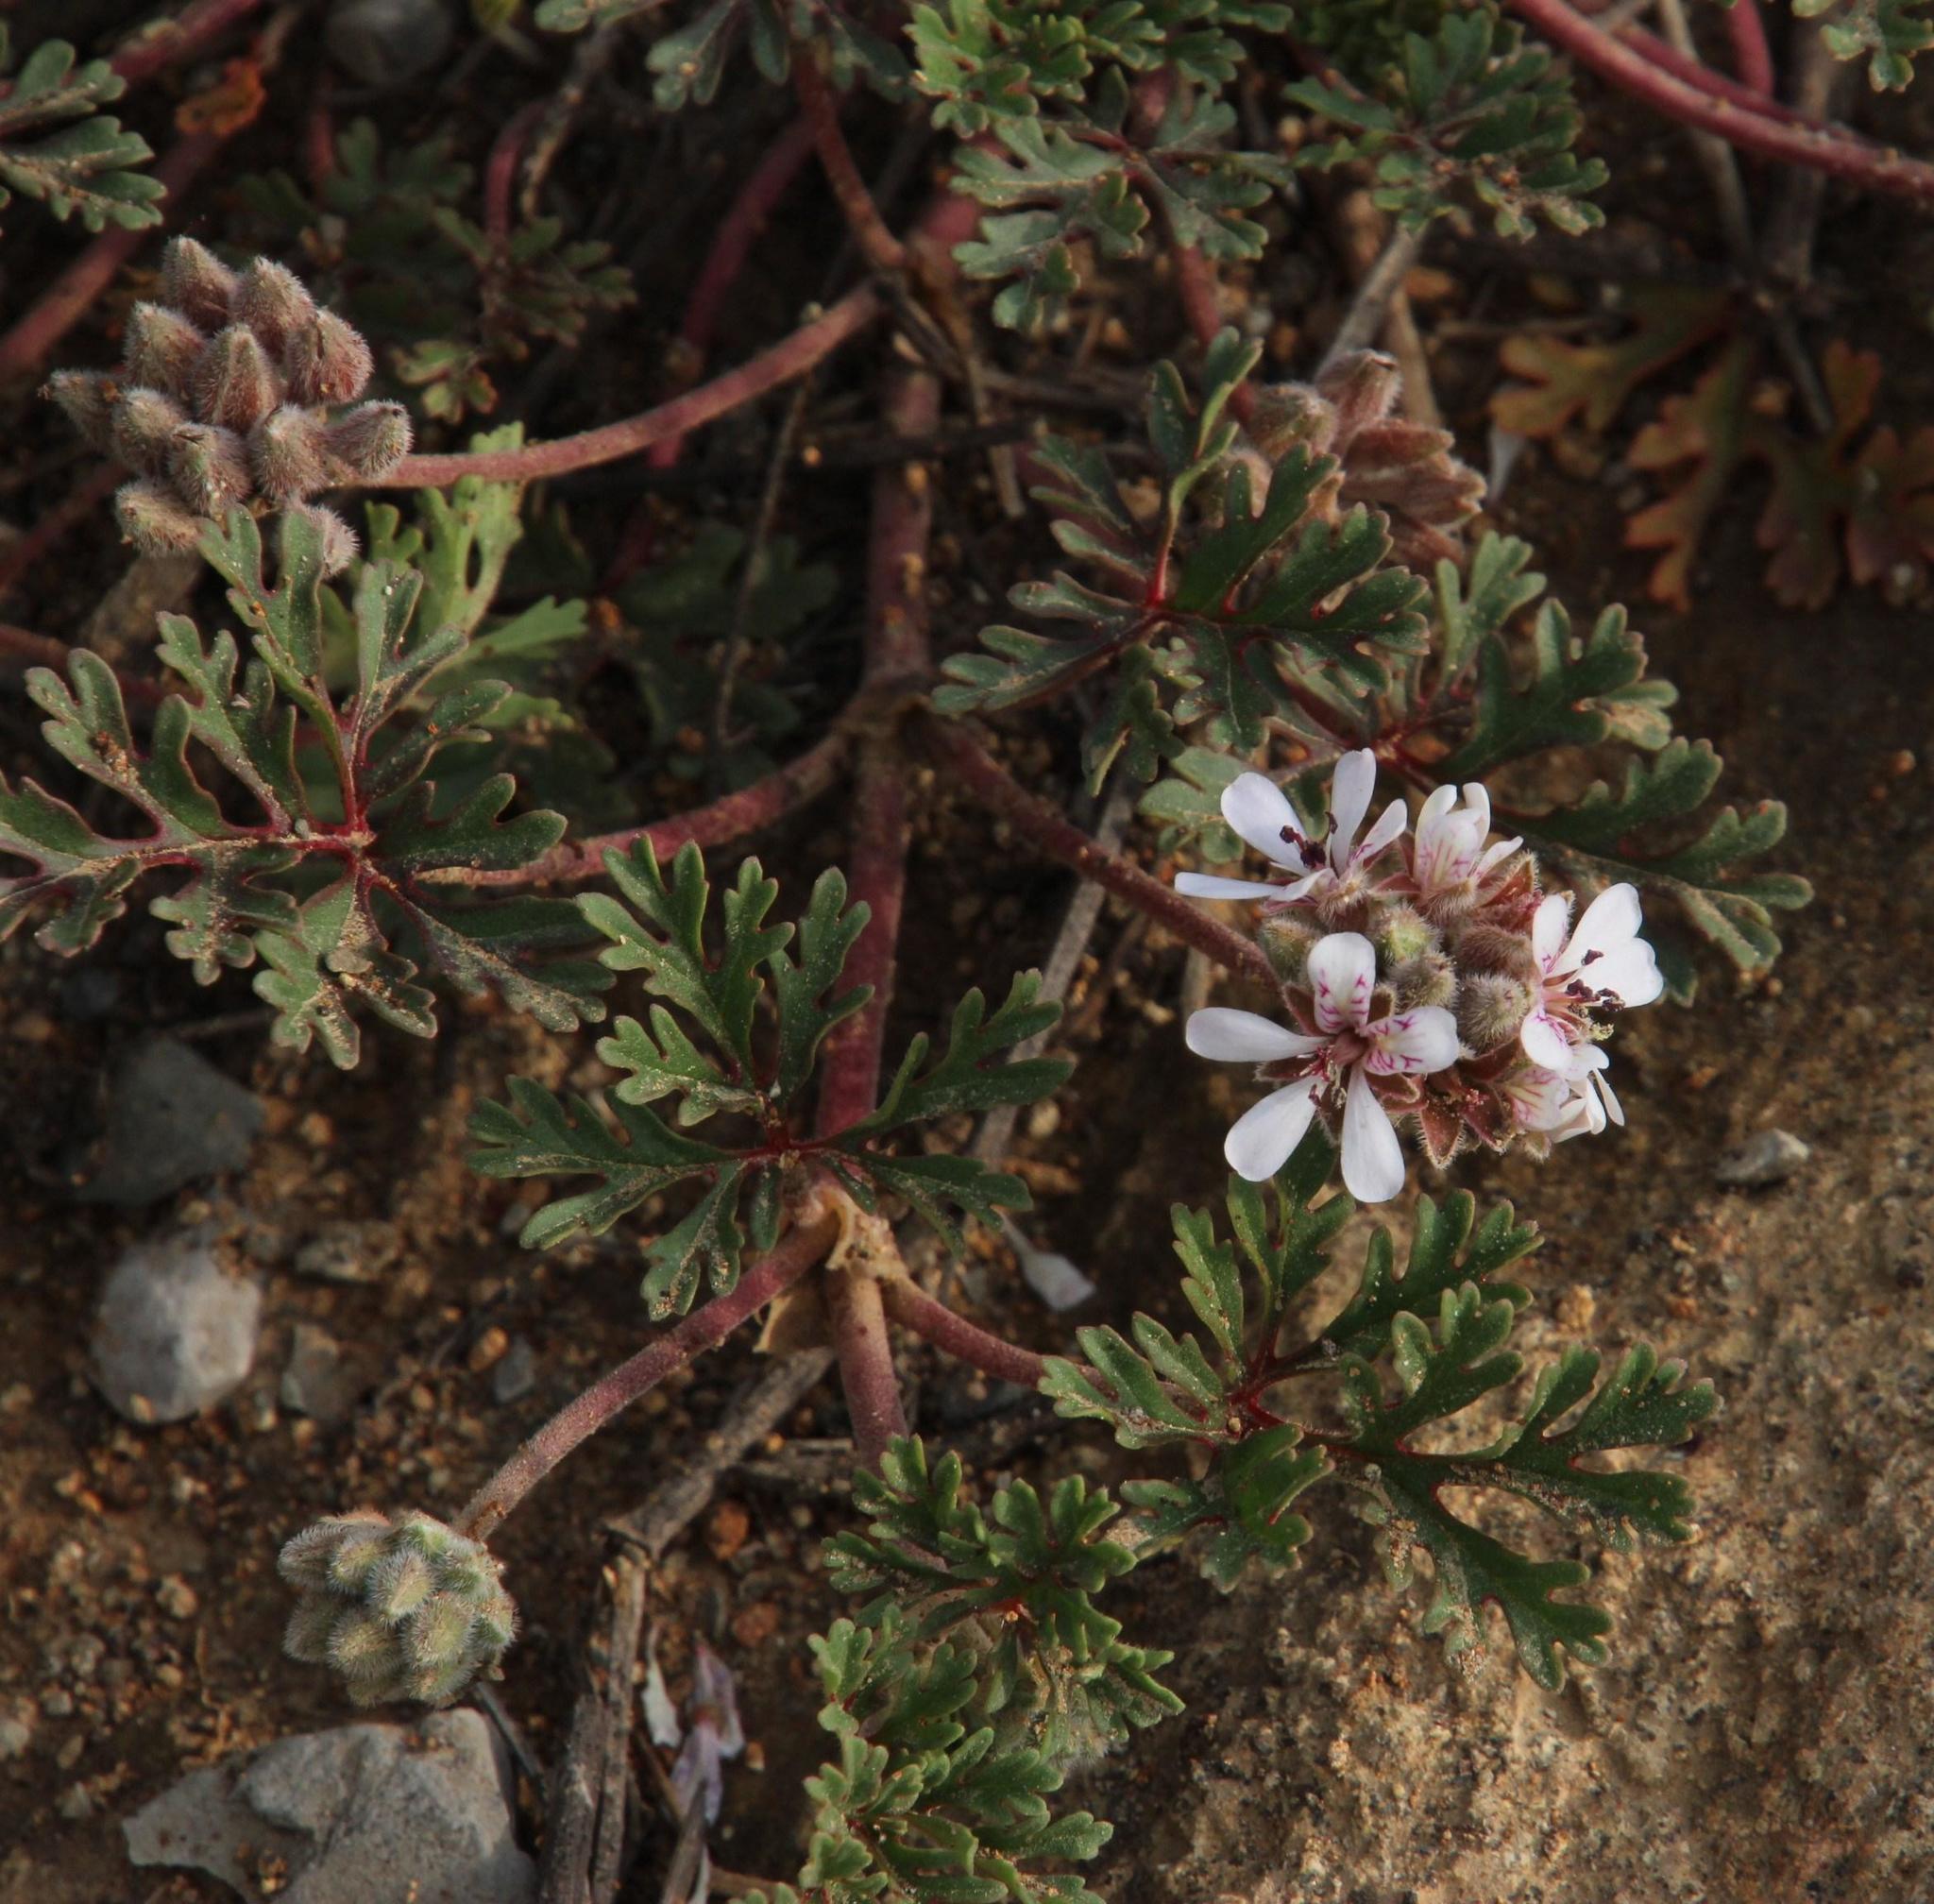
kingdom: Plantae
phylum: Tracheophyta
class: Magnoliopsida
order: Geraniales
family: Geraniaceae
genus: Pelargonium
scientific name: Pelargonium minimum
